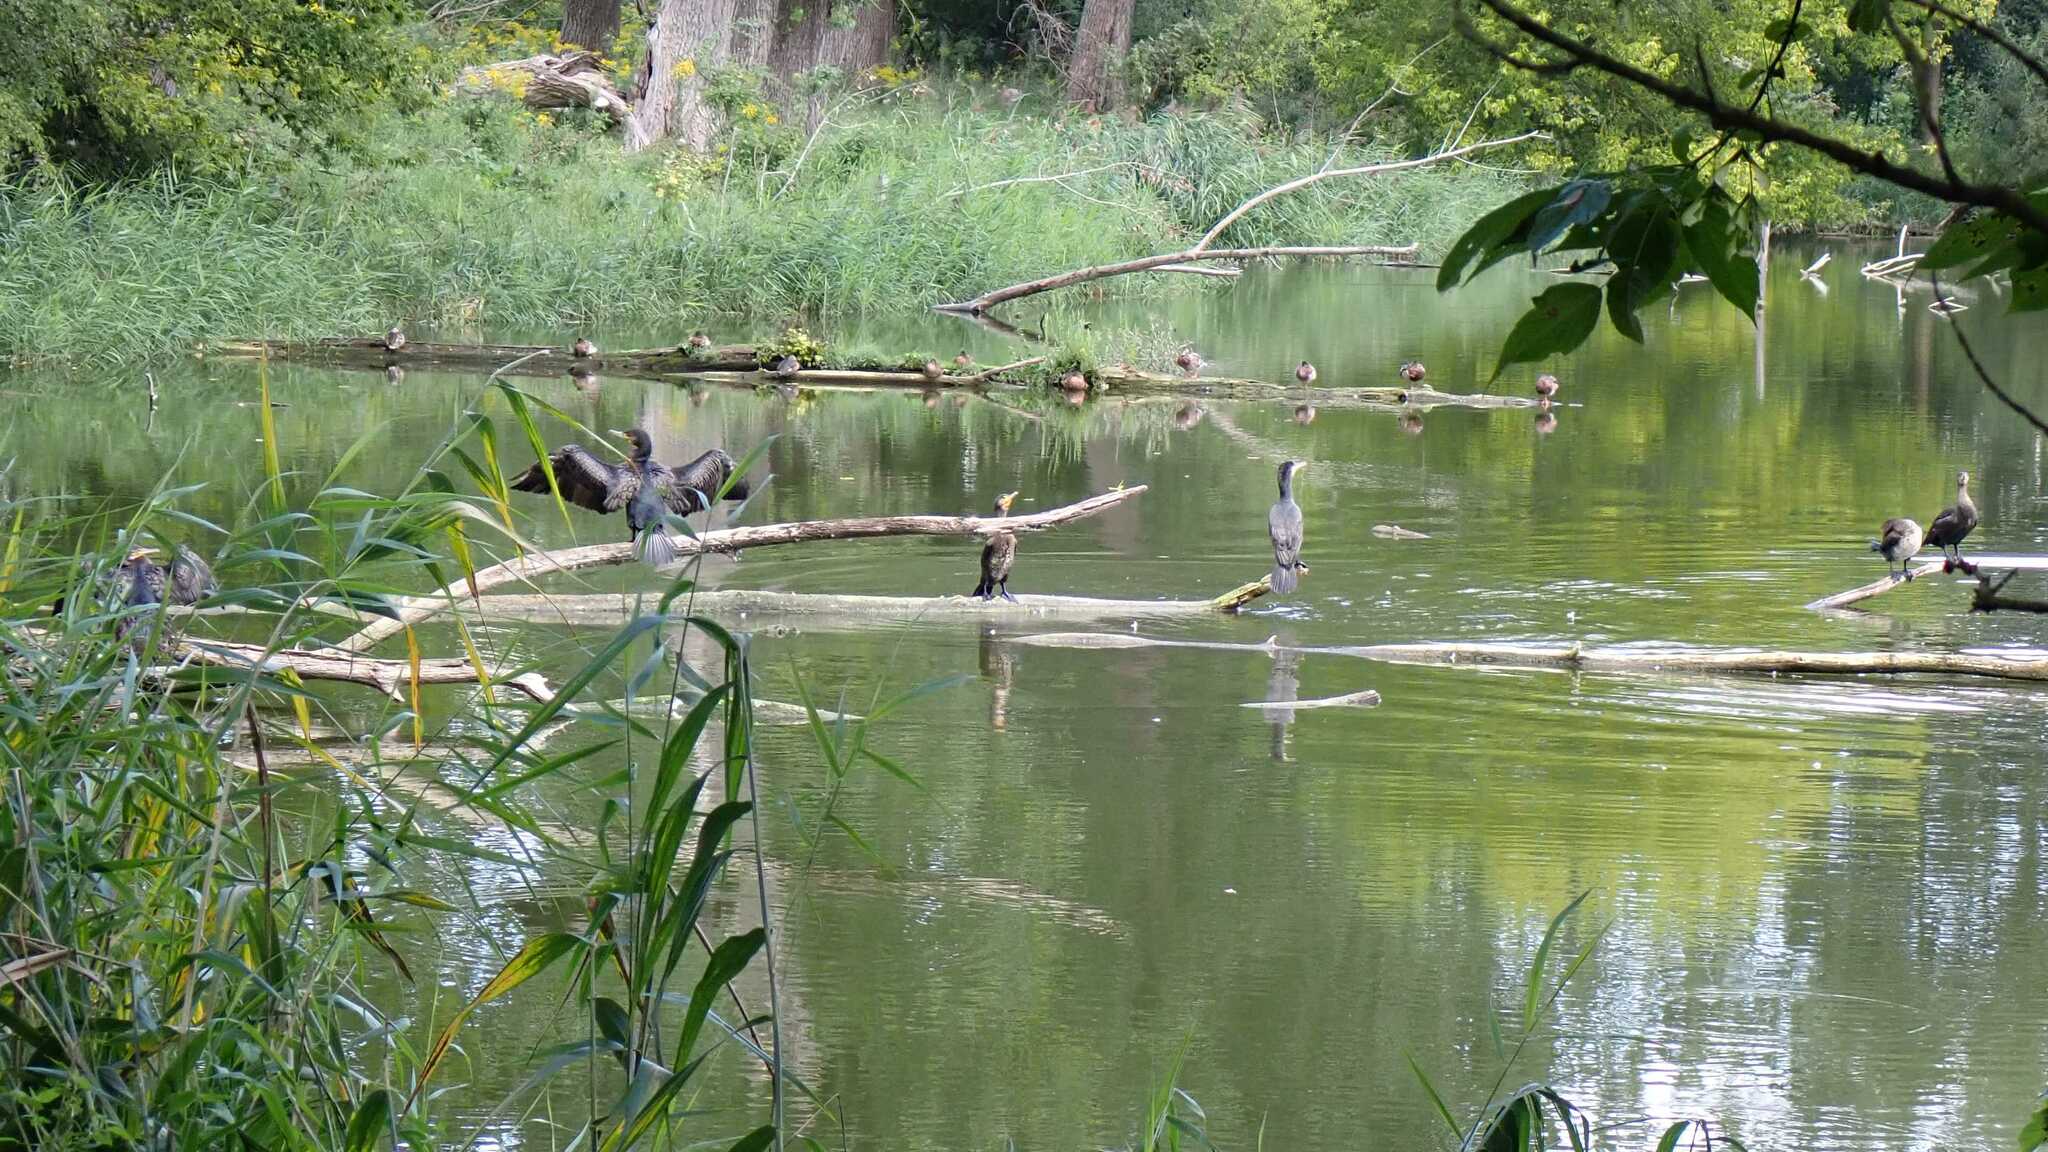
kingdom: Animalia
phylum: Chordata
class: Aves
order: Suliformes
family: Phalacrocoracidae
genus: Phalacrocorax
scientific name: Phalacrocorax carbo
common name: Great cormorant
